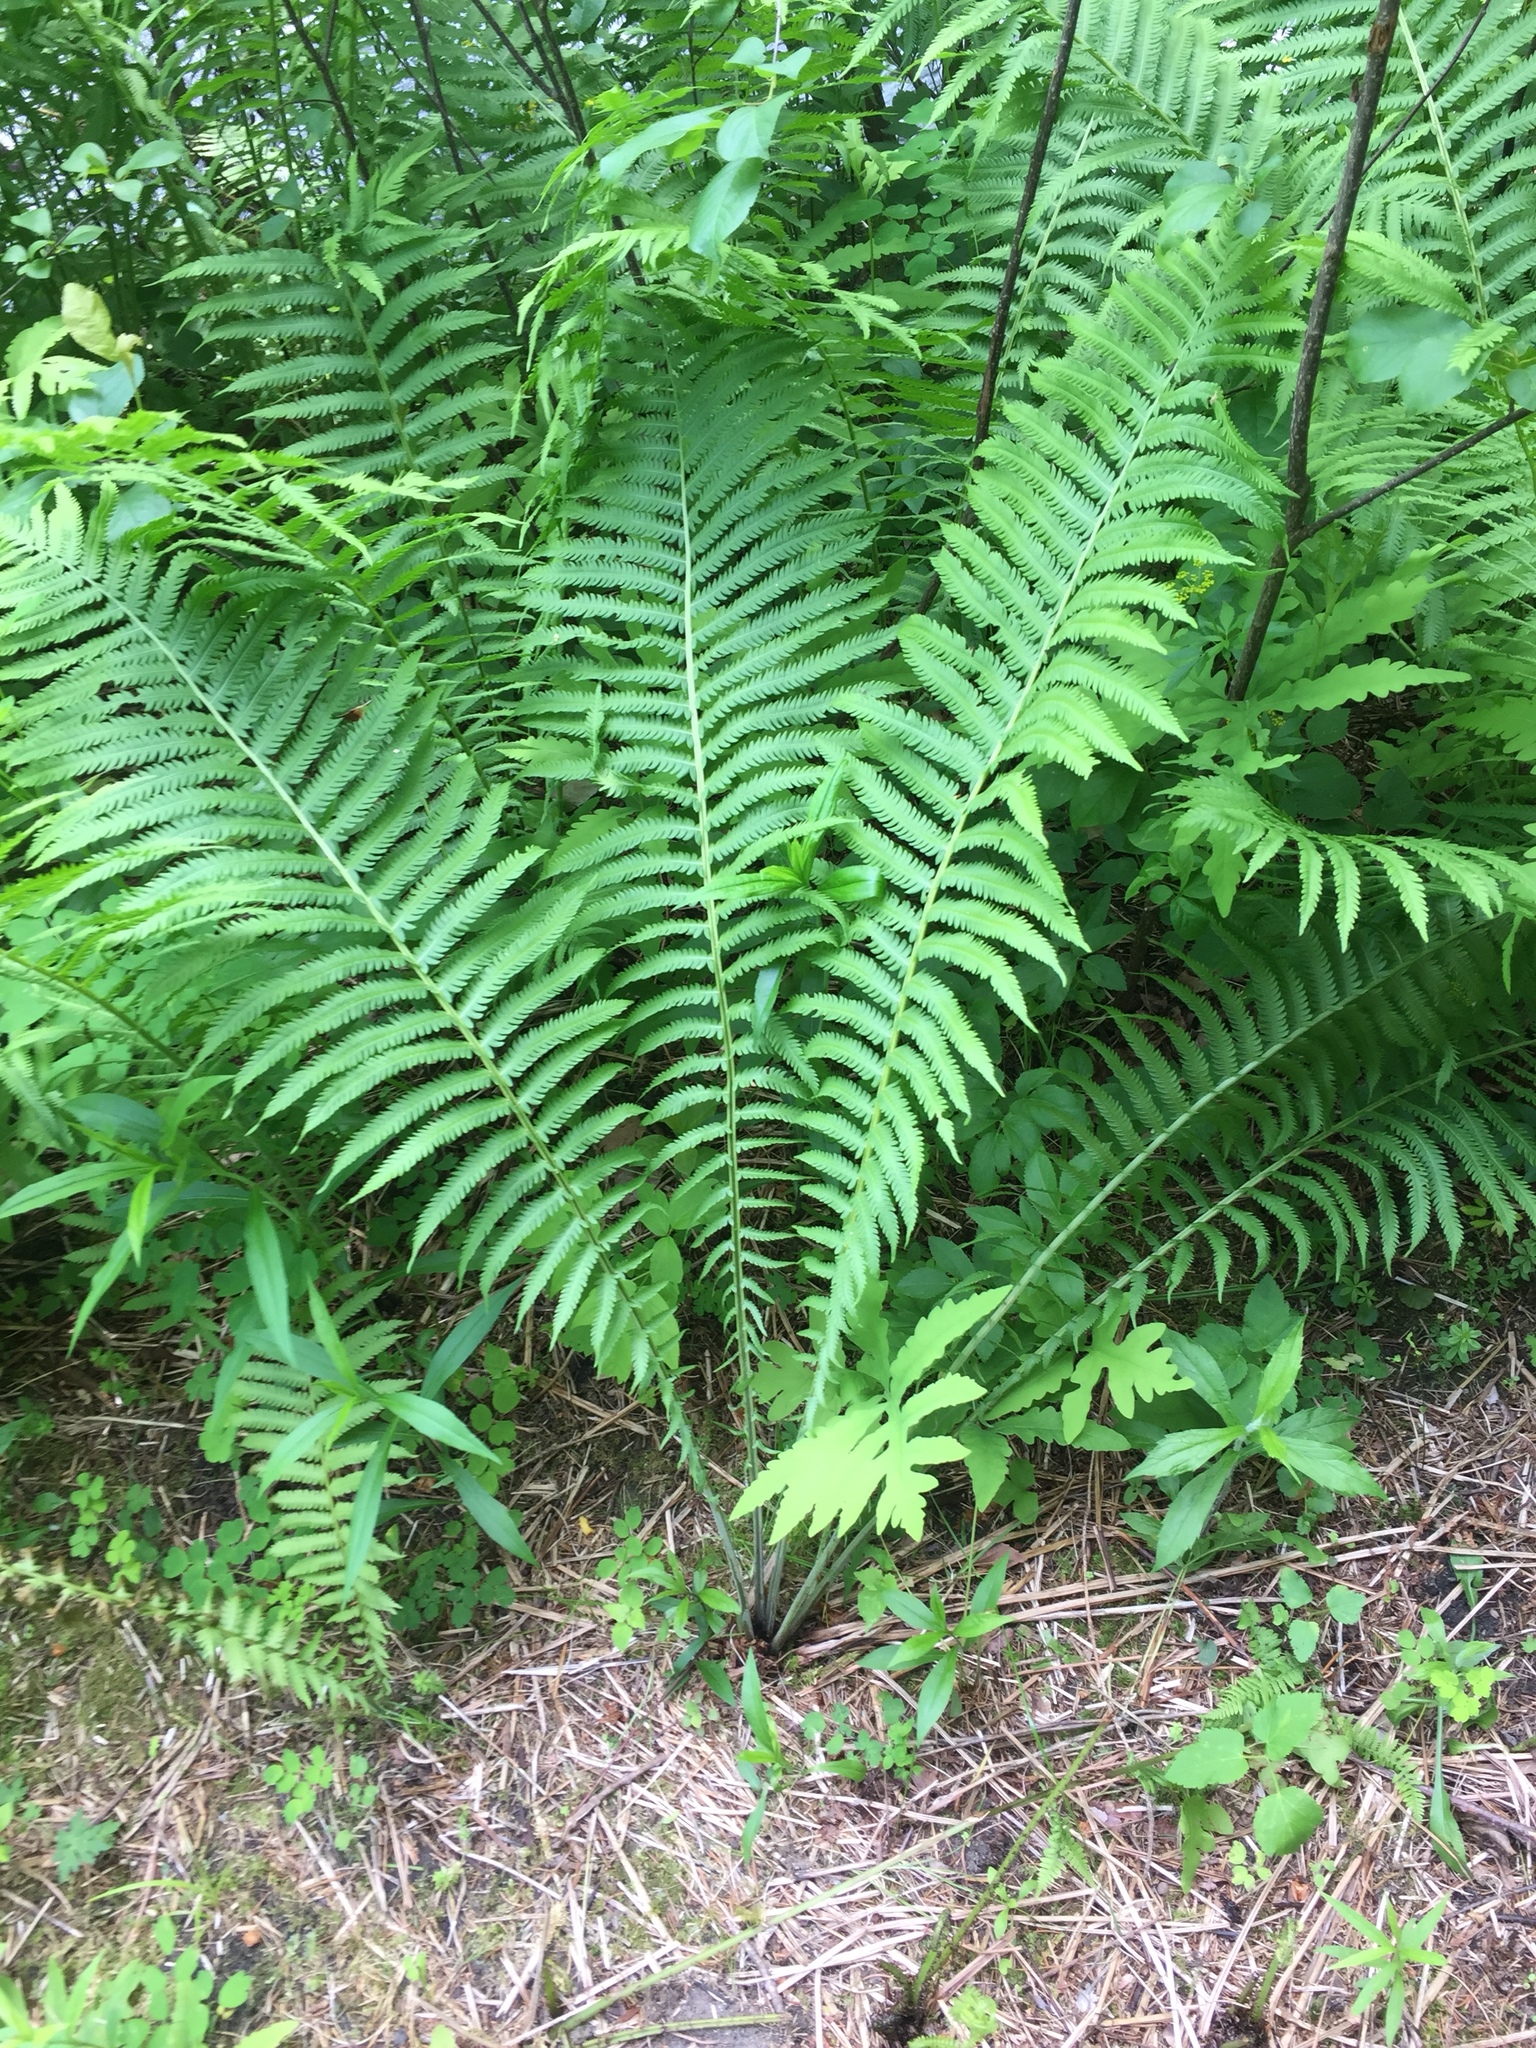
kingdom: Plantae
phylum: Tracheophyta
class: Polypodiopsida
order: Polypodiales
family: Onocleaceae
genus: Matteuccia
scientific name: Matteuccia struthiopteris
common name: Ostrich fern
